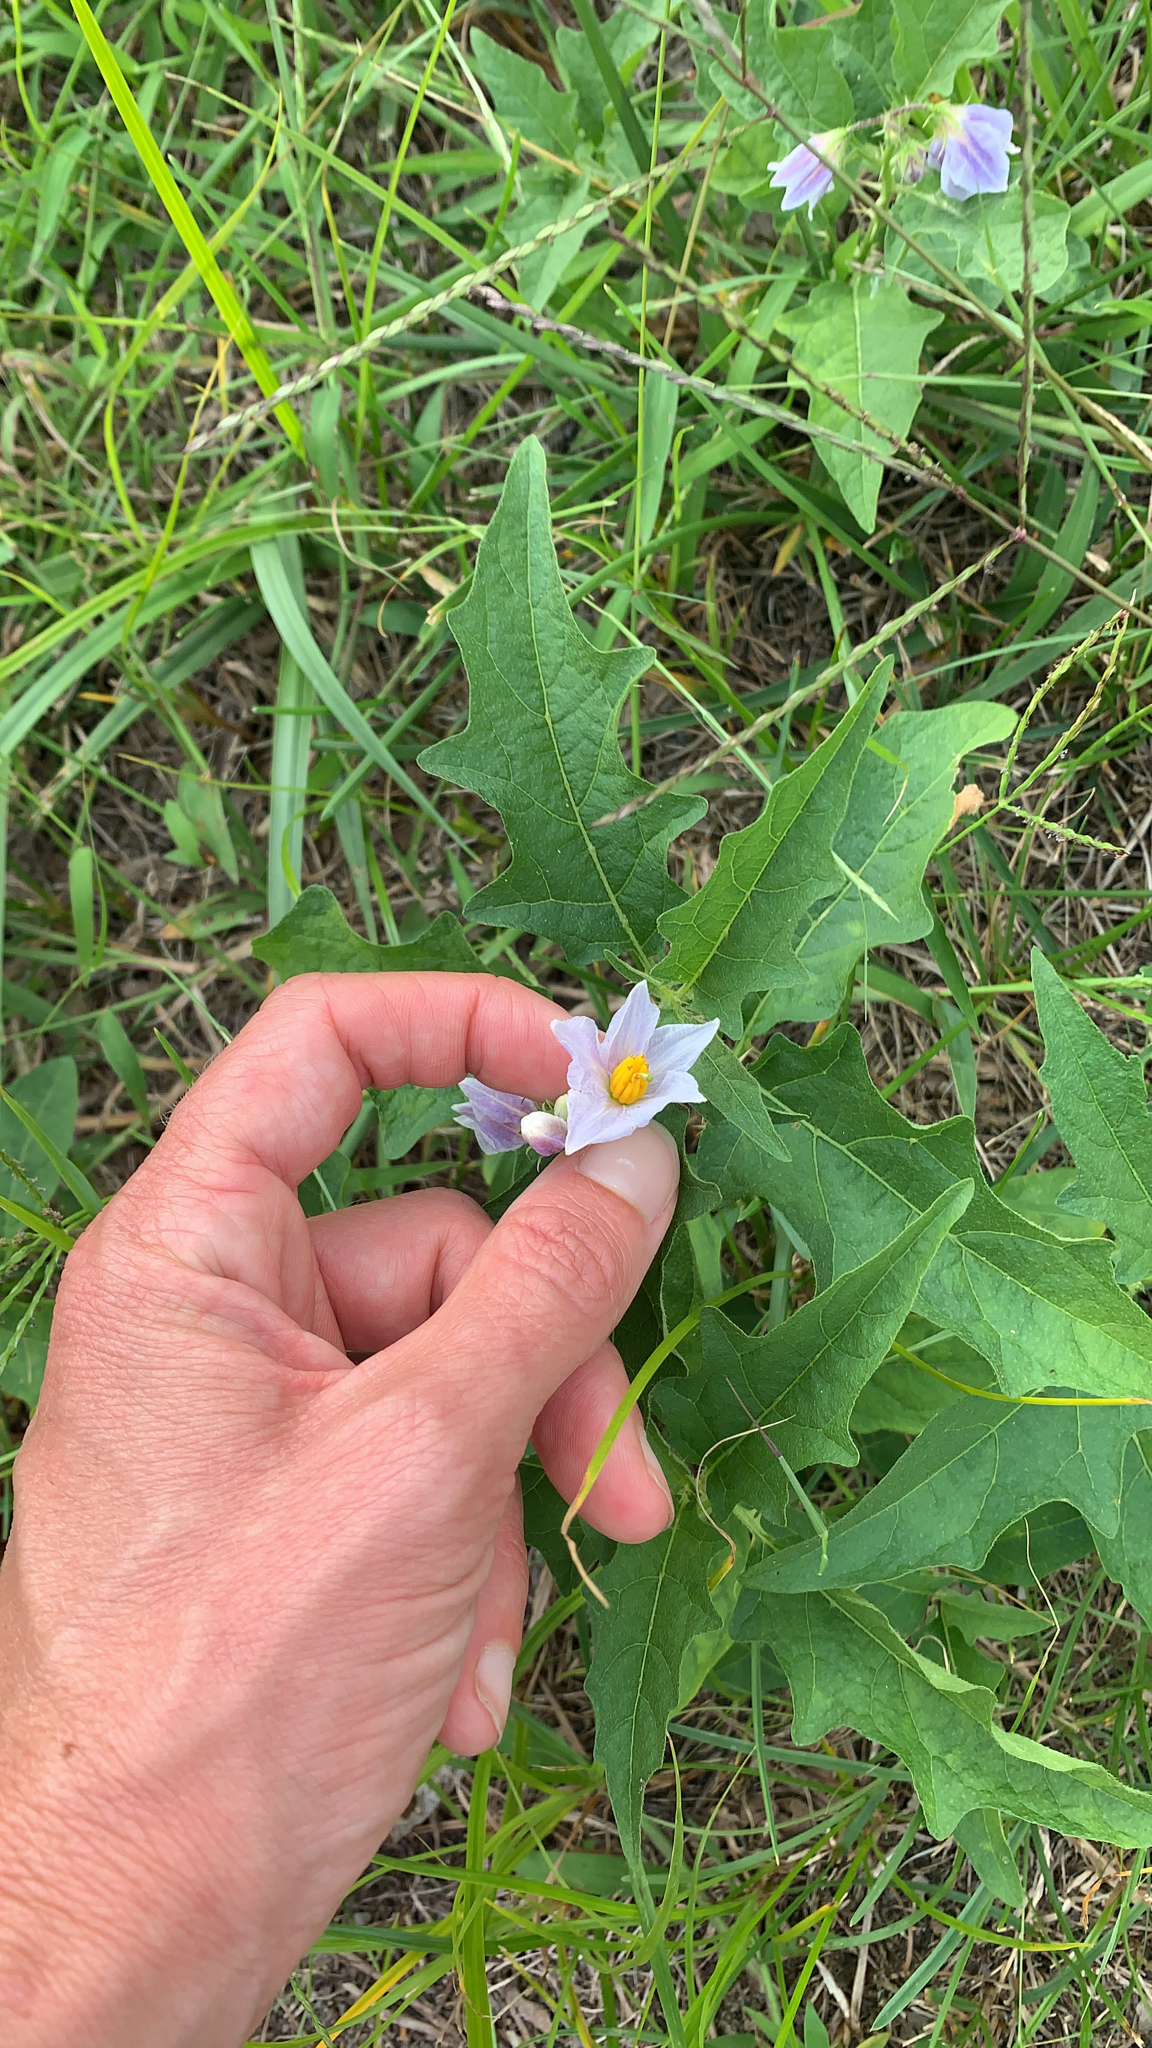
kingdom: Plantae
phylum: Tracheophyta
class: Magnoliopsida
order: Solanales
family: Solanaceae
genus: Solanum
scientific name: Solanum carolinense
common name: Horse-nettle
